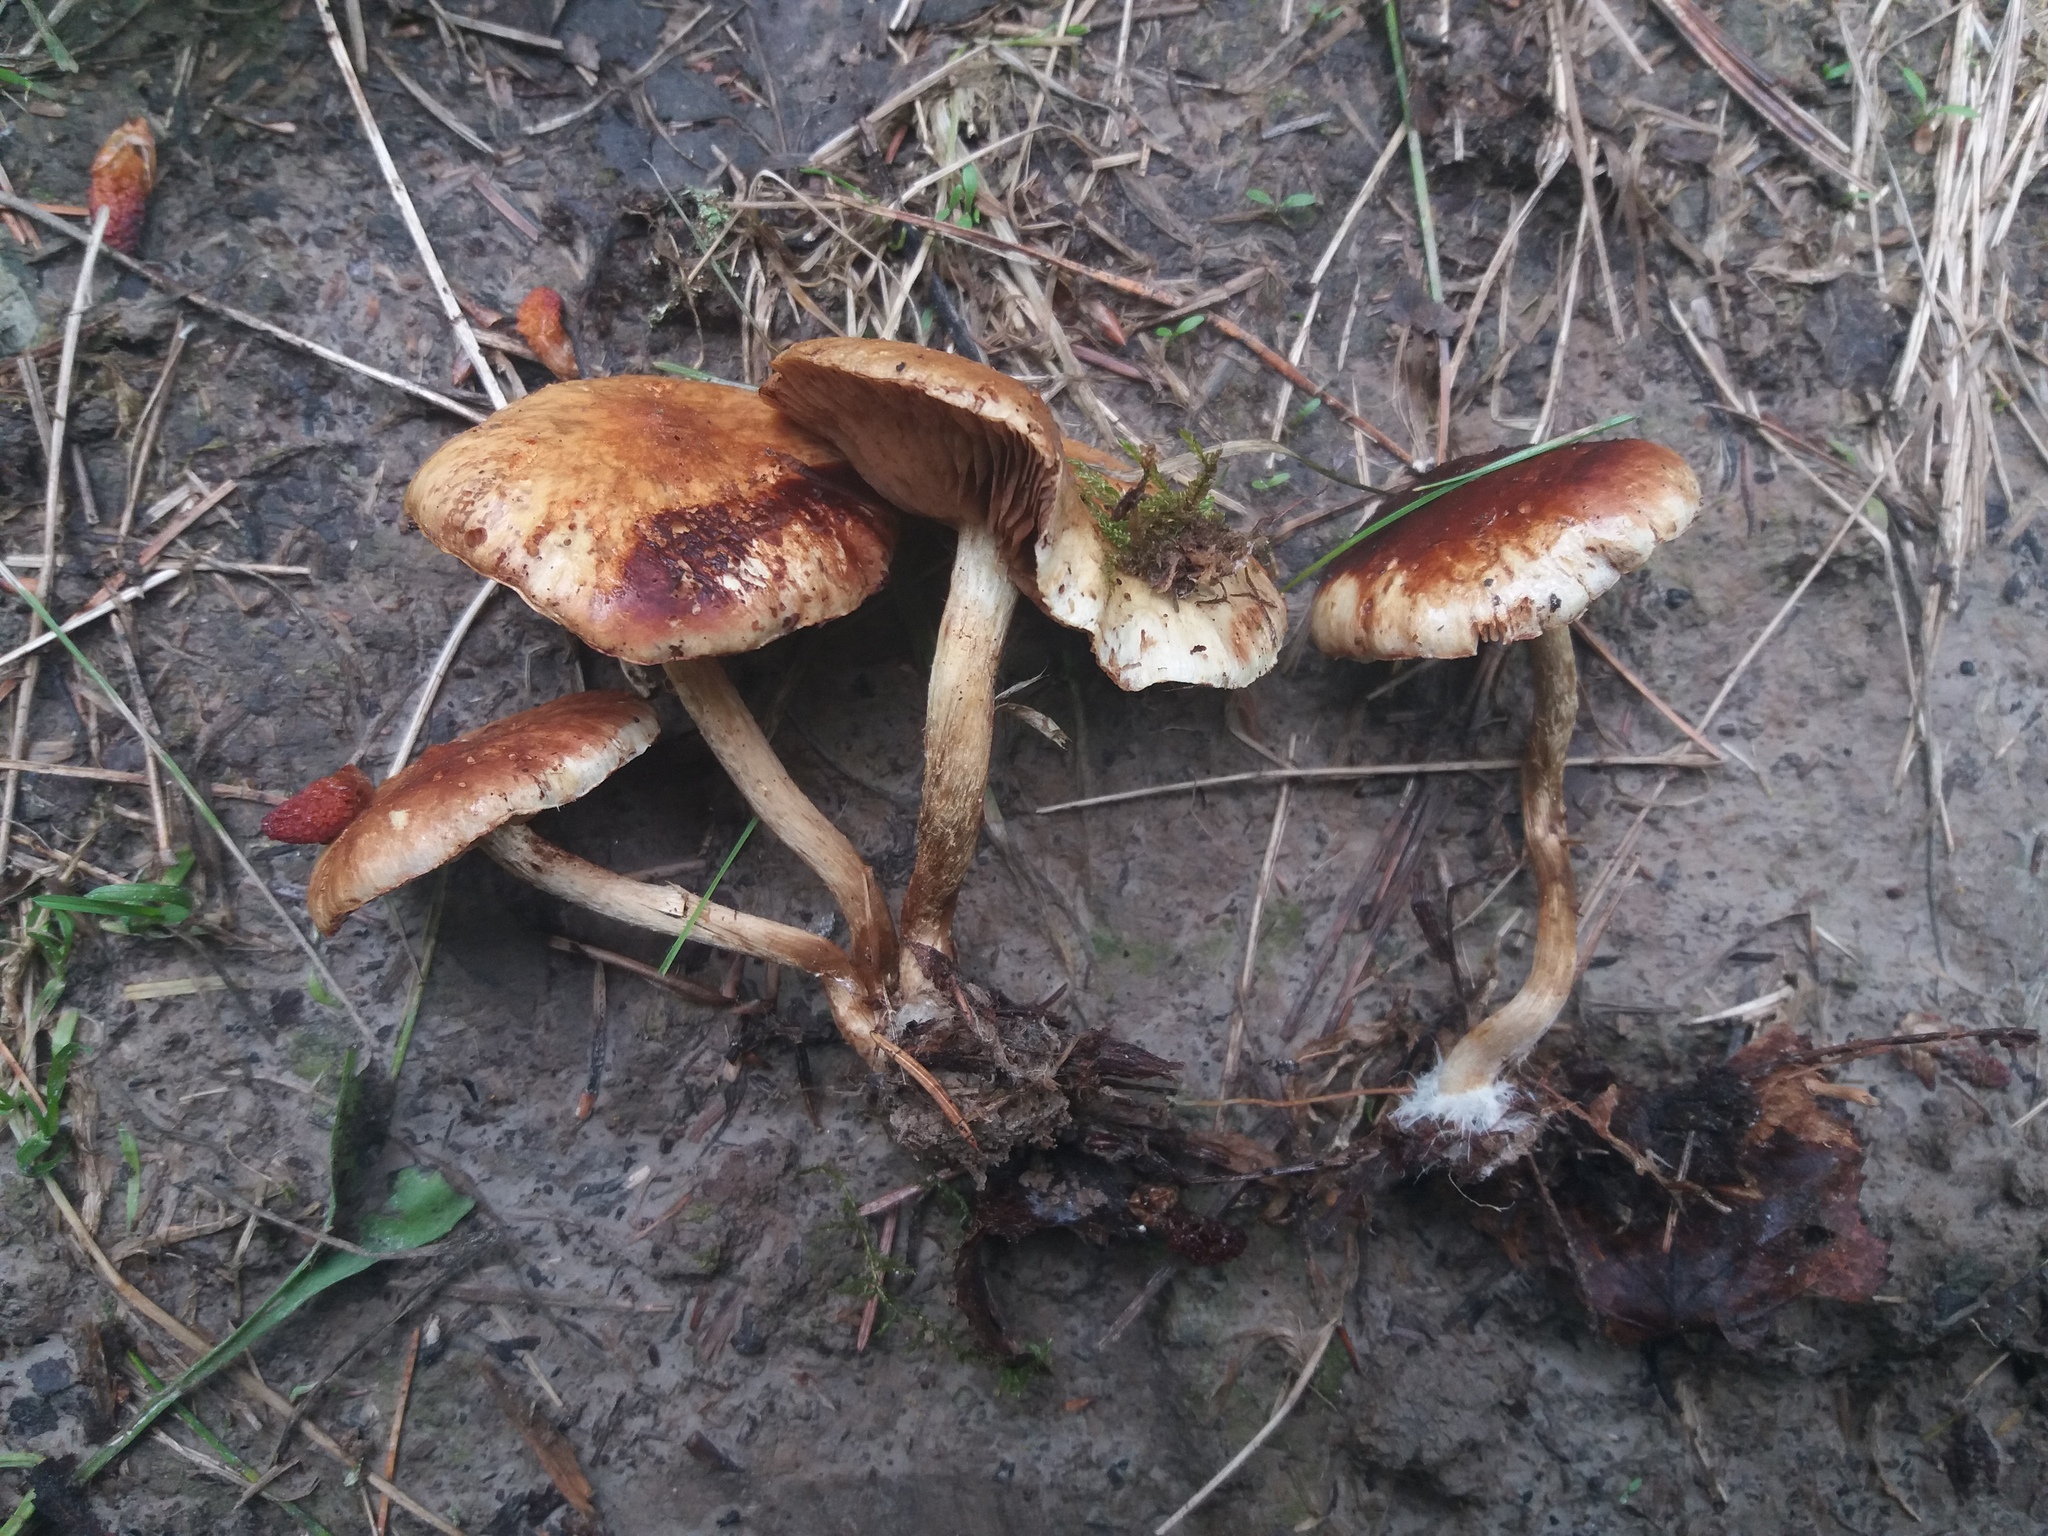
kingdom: Fungi
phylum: Basidiomycota
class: Agaricomycetes
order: Agaricales
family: Strophariaceae
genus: Pholiota
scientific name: Pholiota elegans
